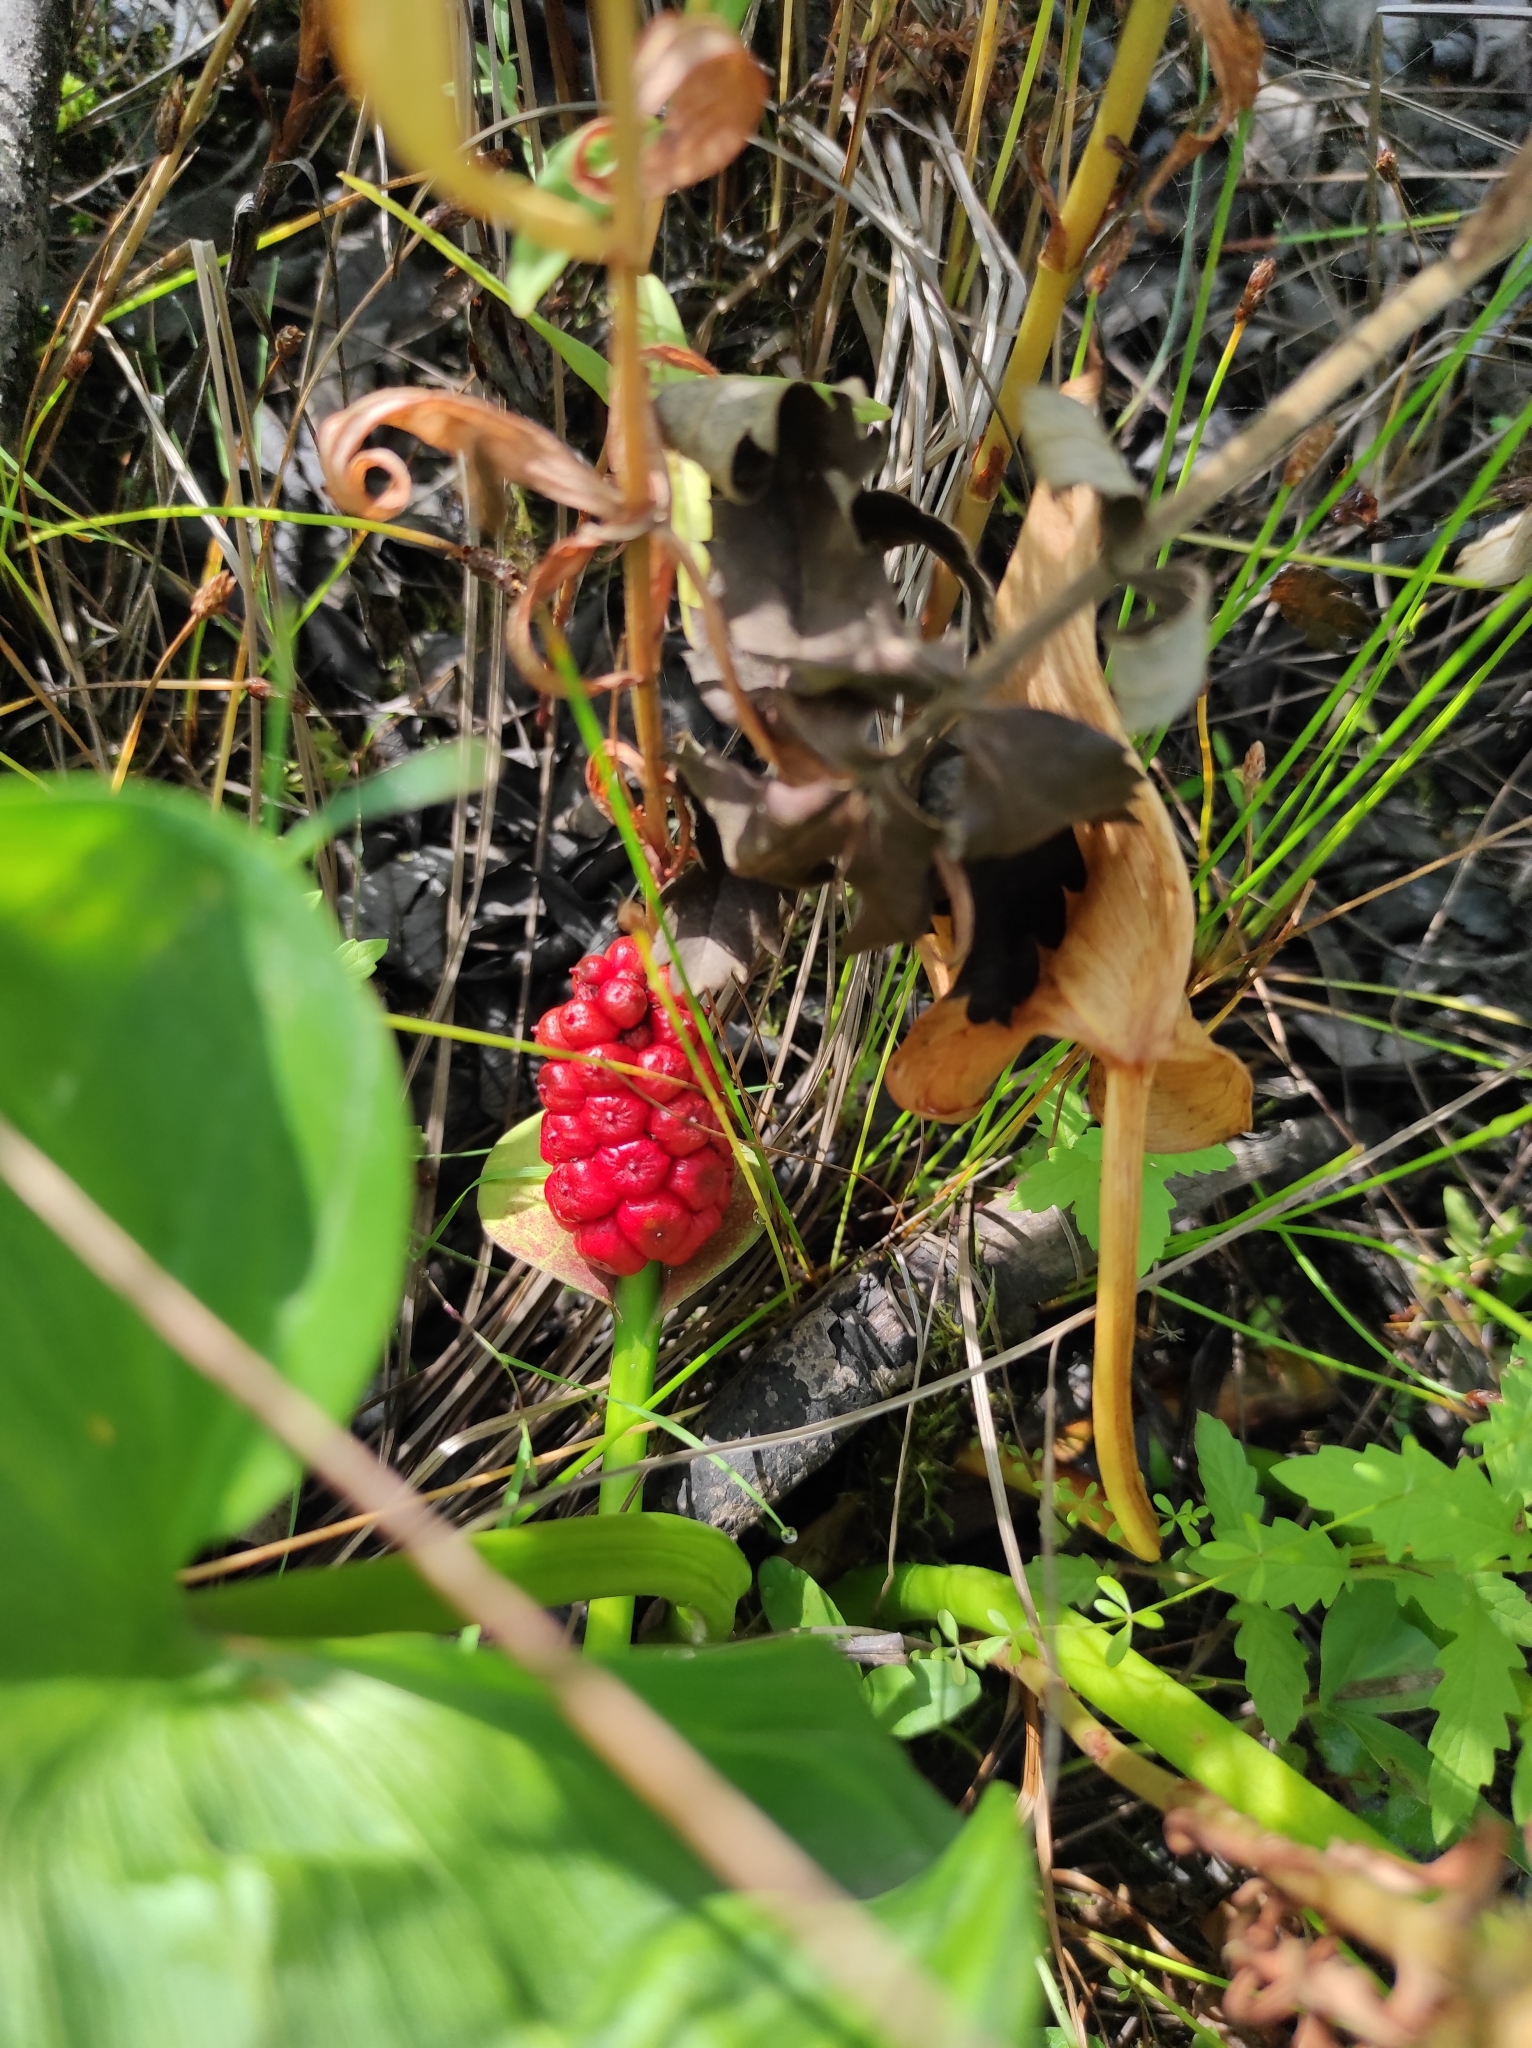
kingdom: Plantae
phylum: Tracheophyta
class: Liliopsida
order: Alismatales
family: Araceae
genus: Calla
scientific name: Calla palustris
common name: Bog arum
